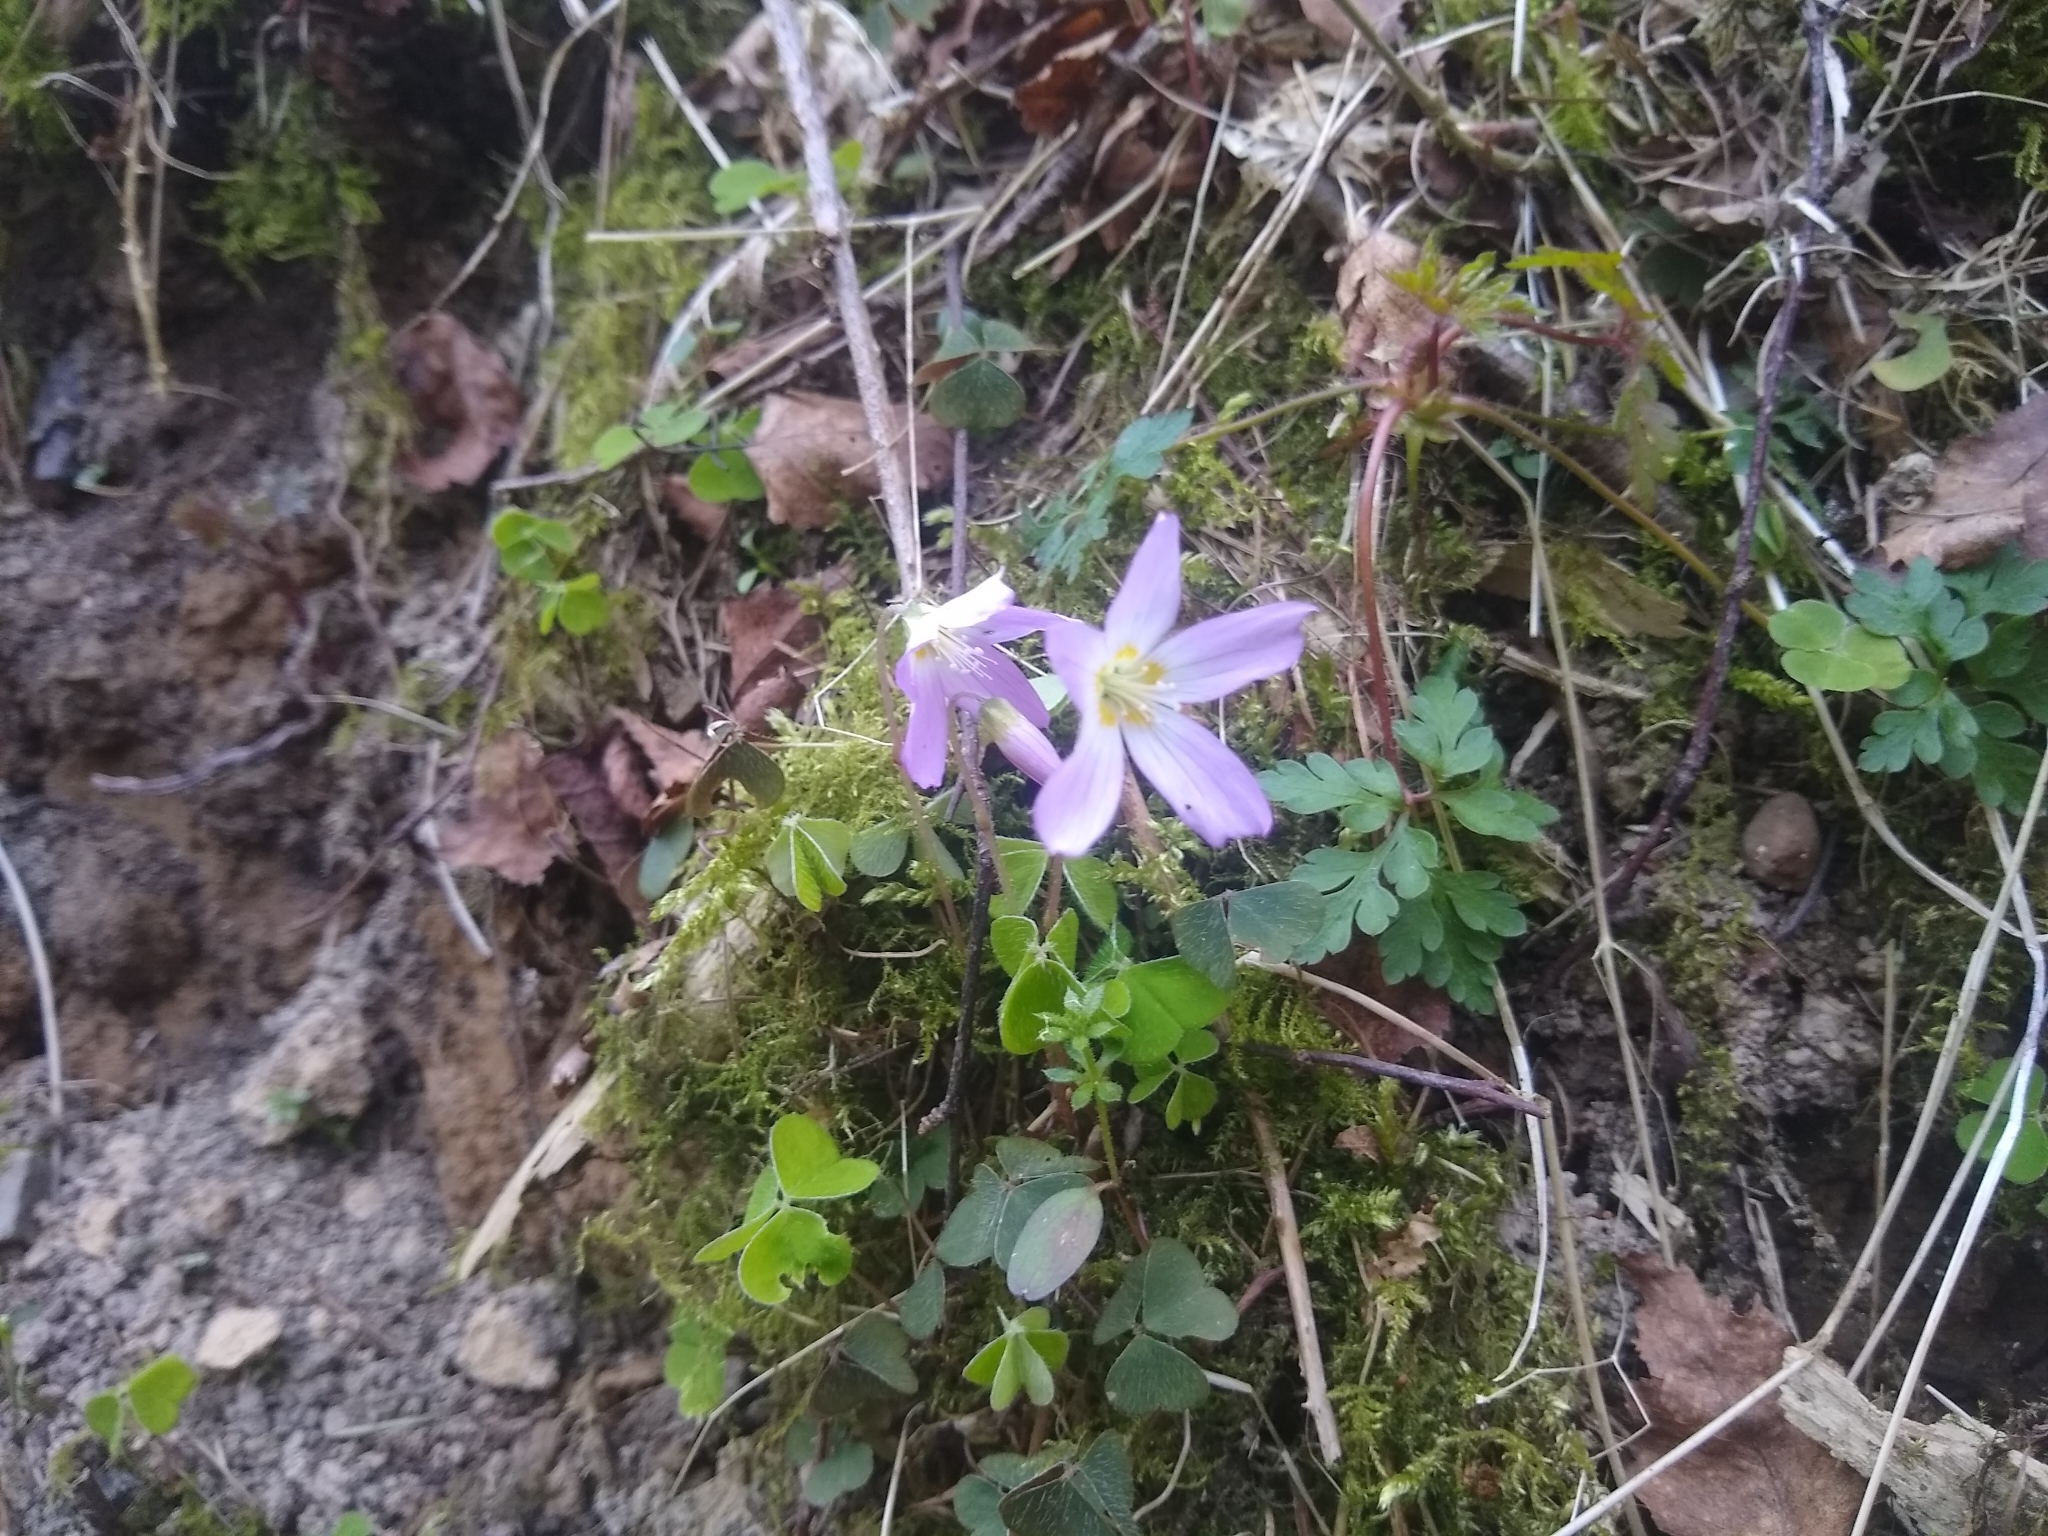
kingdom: Plantae
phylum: Tracheophyta
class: Magnoliopsida
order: Oxalidales
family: Oxalidaceae
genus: Oxalis
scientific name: Oxalis acetosella
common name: Wood-sorrel
